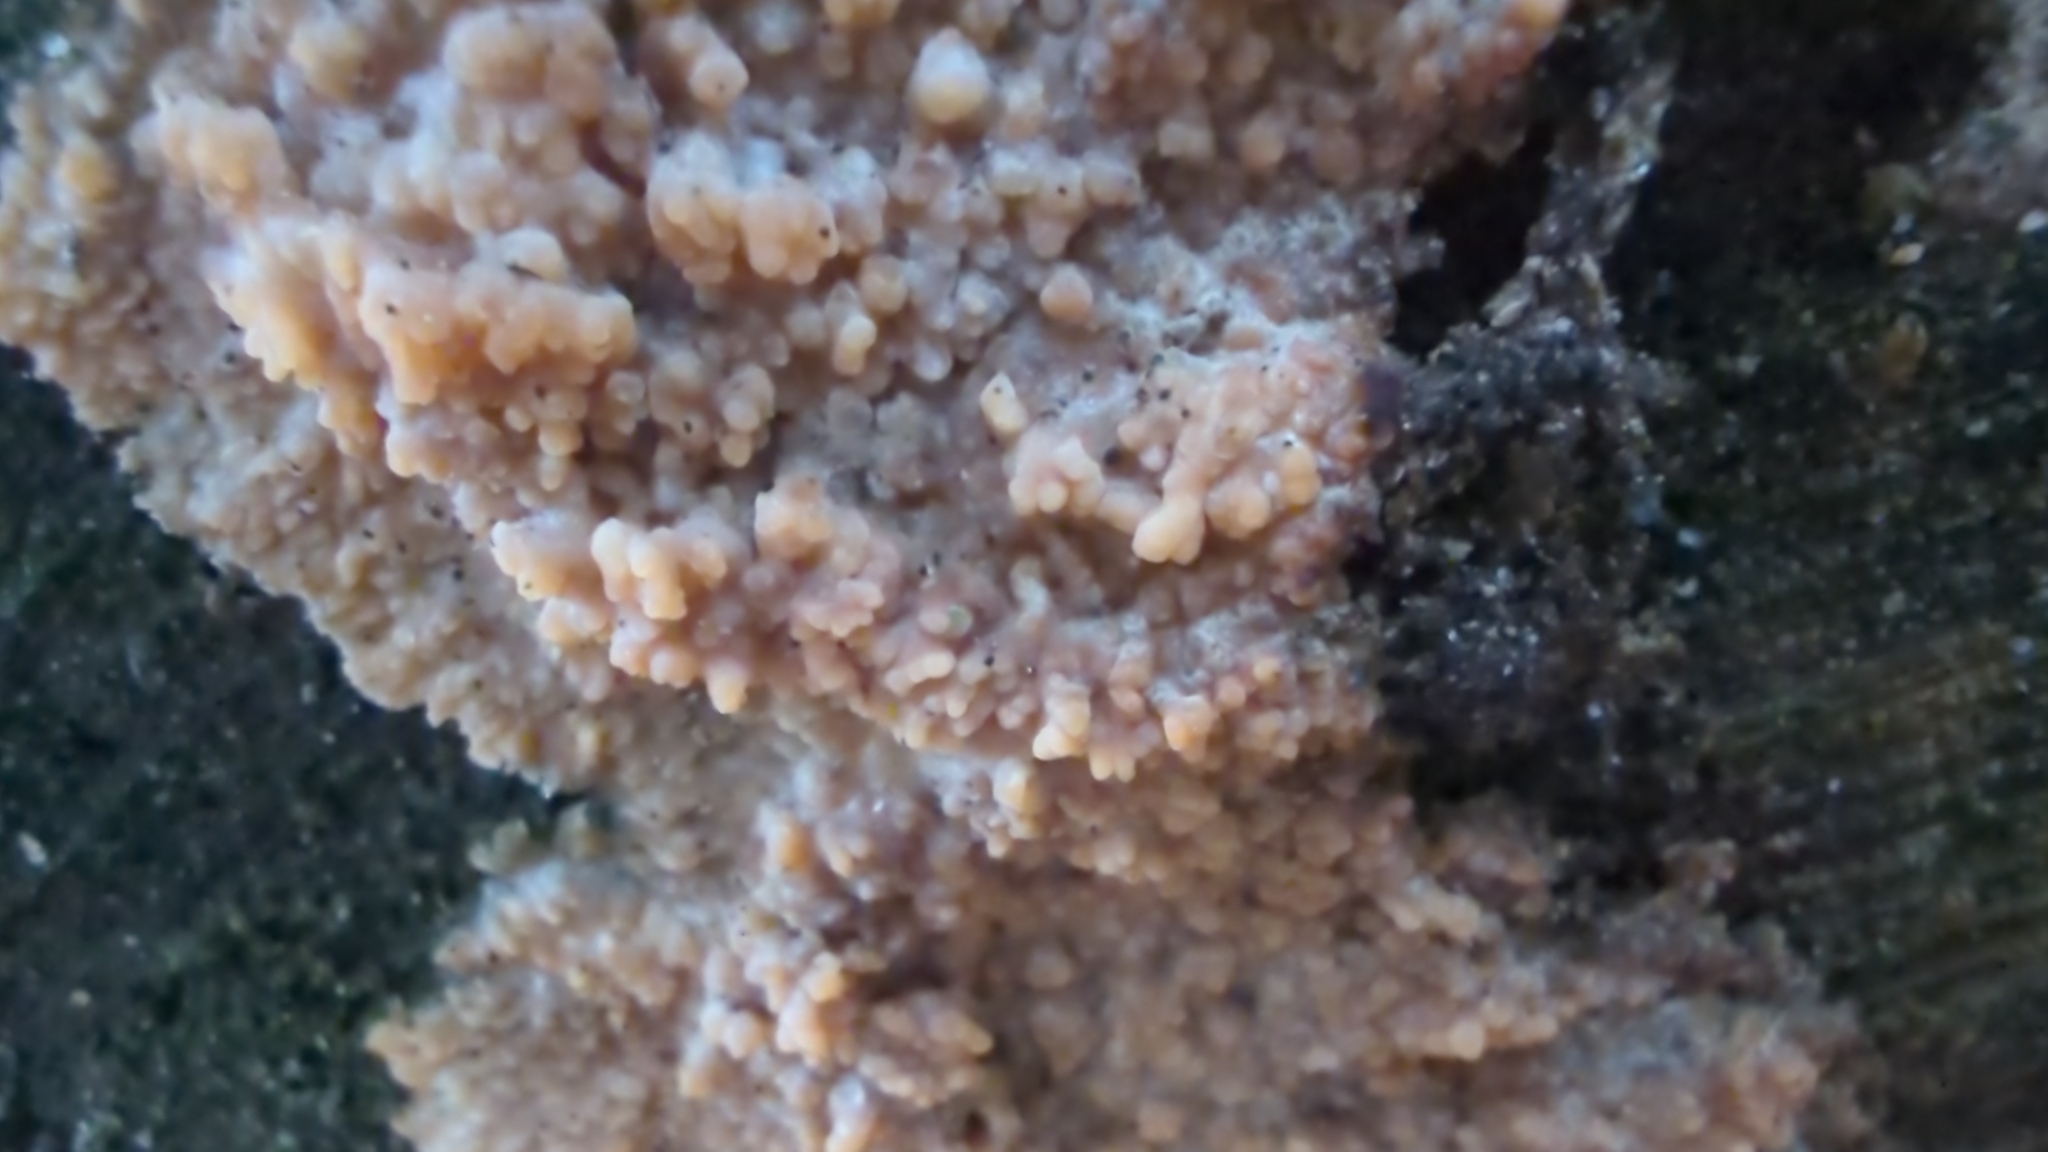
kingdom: Fungi
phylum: Basidiomycota
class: Agaricomycetes
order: Polyporales
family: Meruliaceae
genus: Phlebia
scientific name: Phlebia radiata
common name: Wrinkled crust
